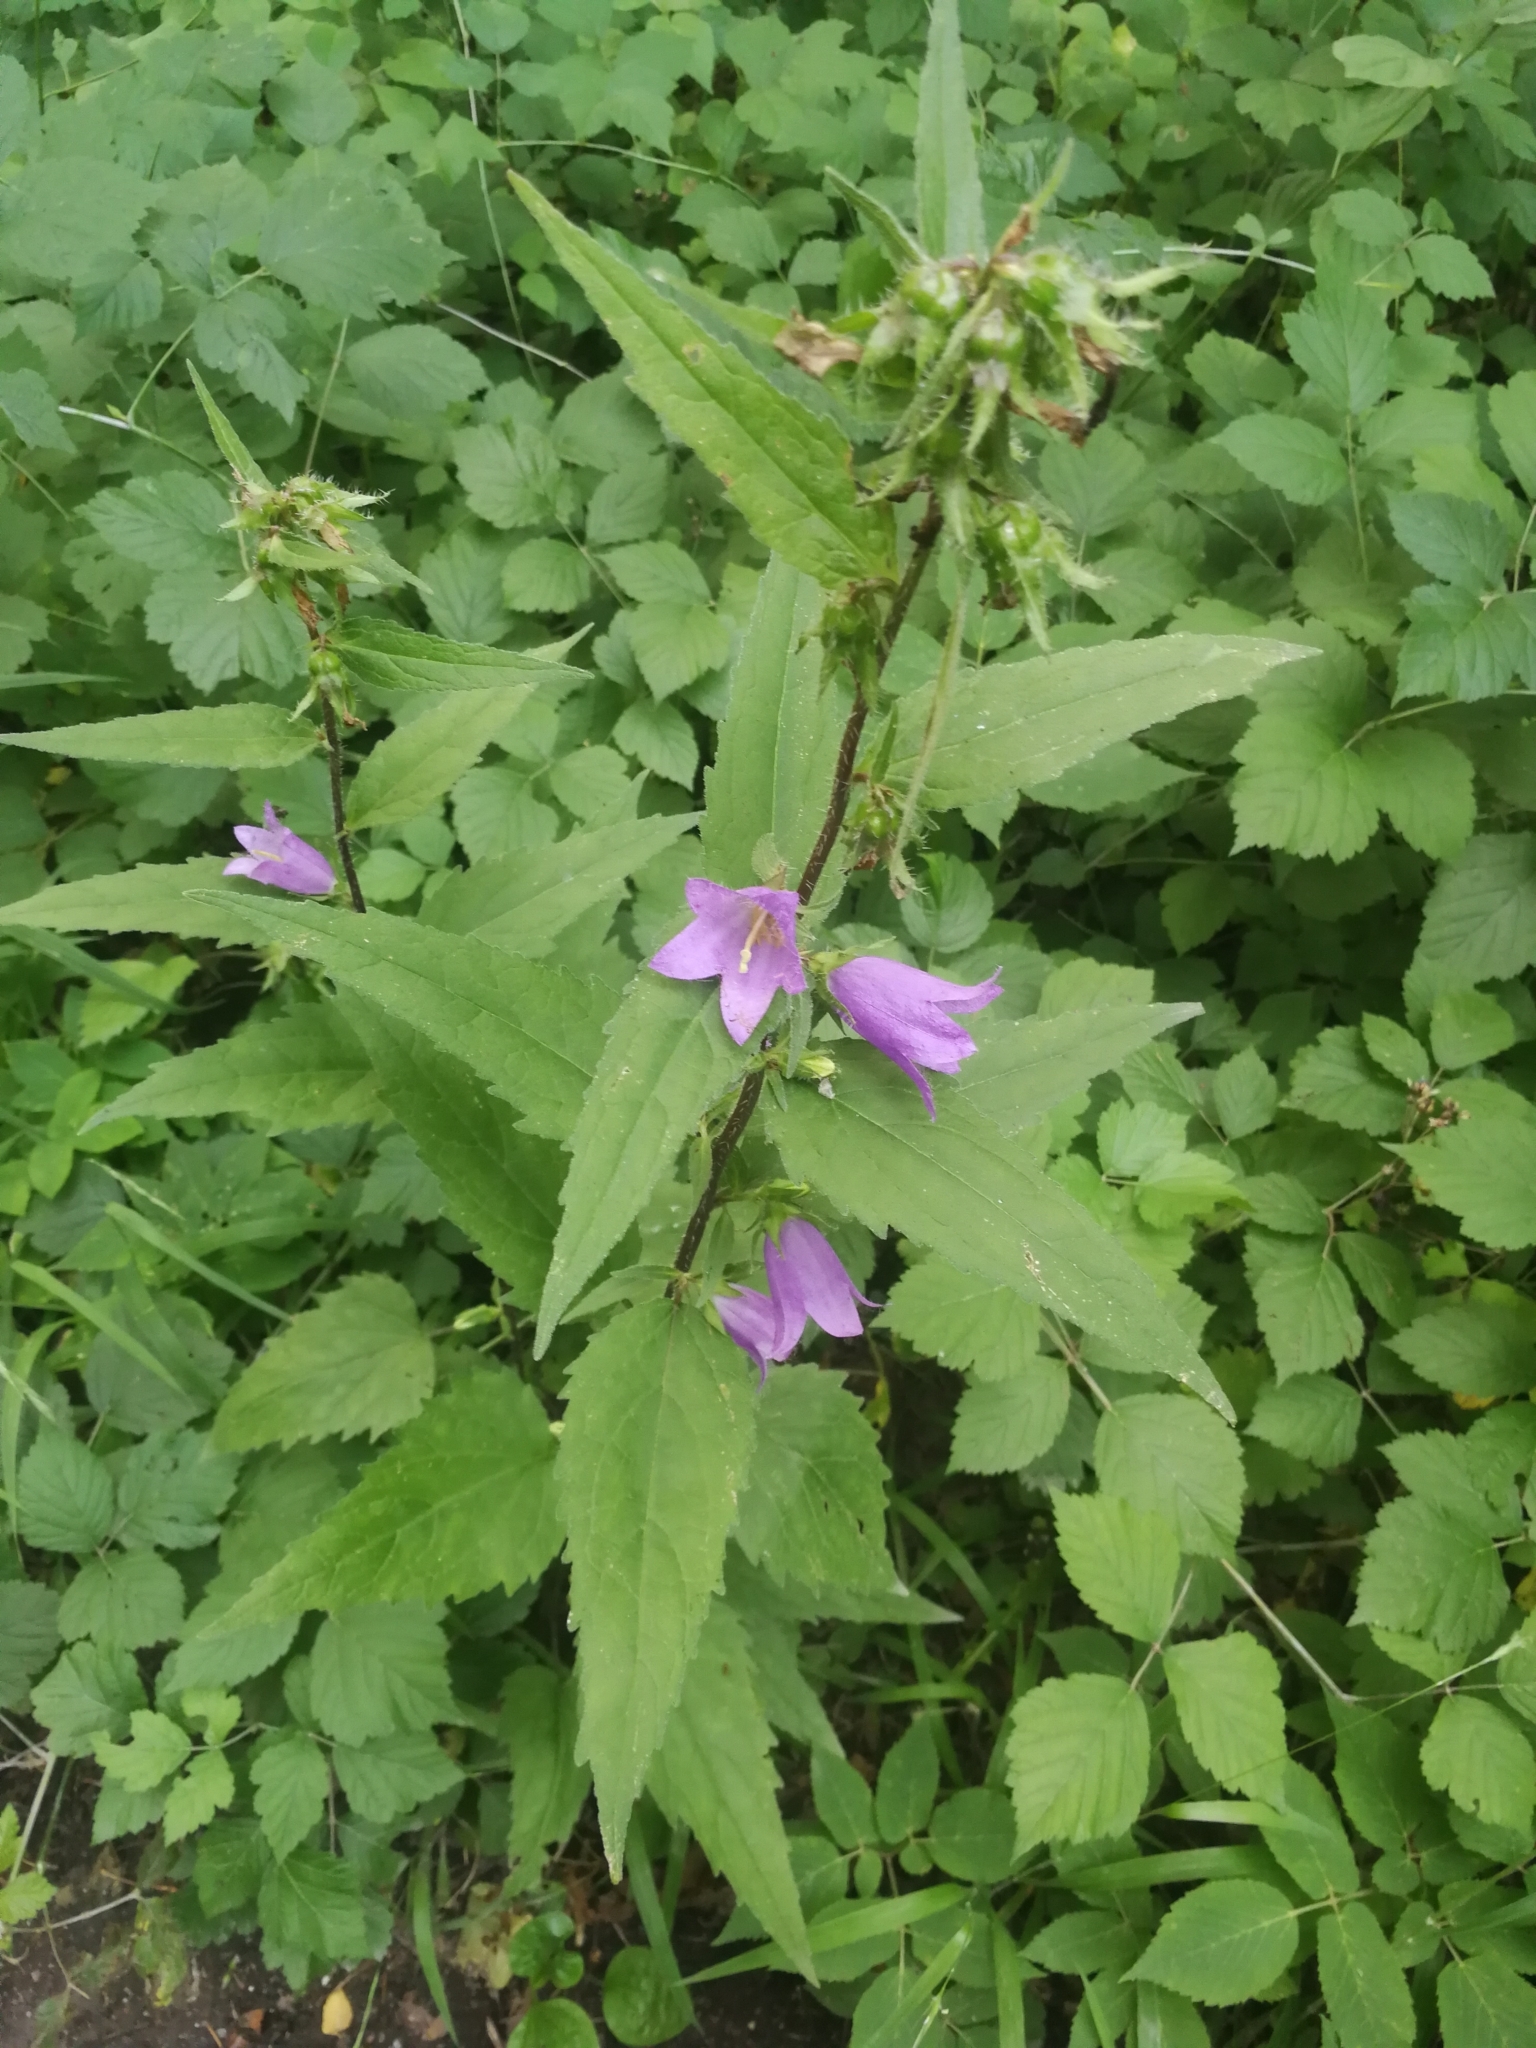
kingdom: Plantae
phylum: Tracheophyta
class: Magnoliopsida
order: Asterales
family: Campanulaceae
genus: Campanula
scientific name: Campanula trachelium
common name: Nettle-leaved bellflower
